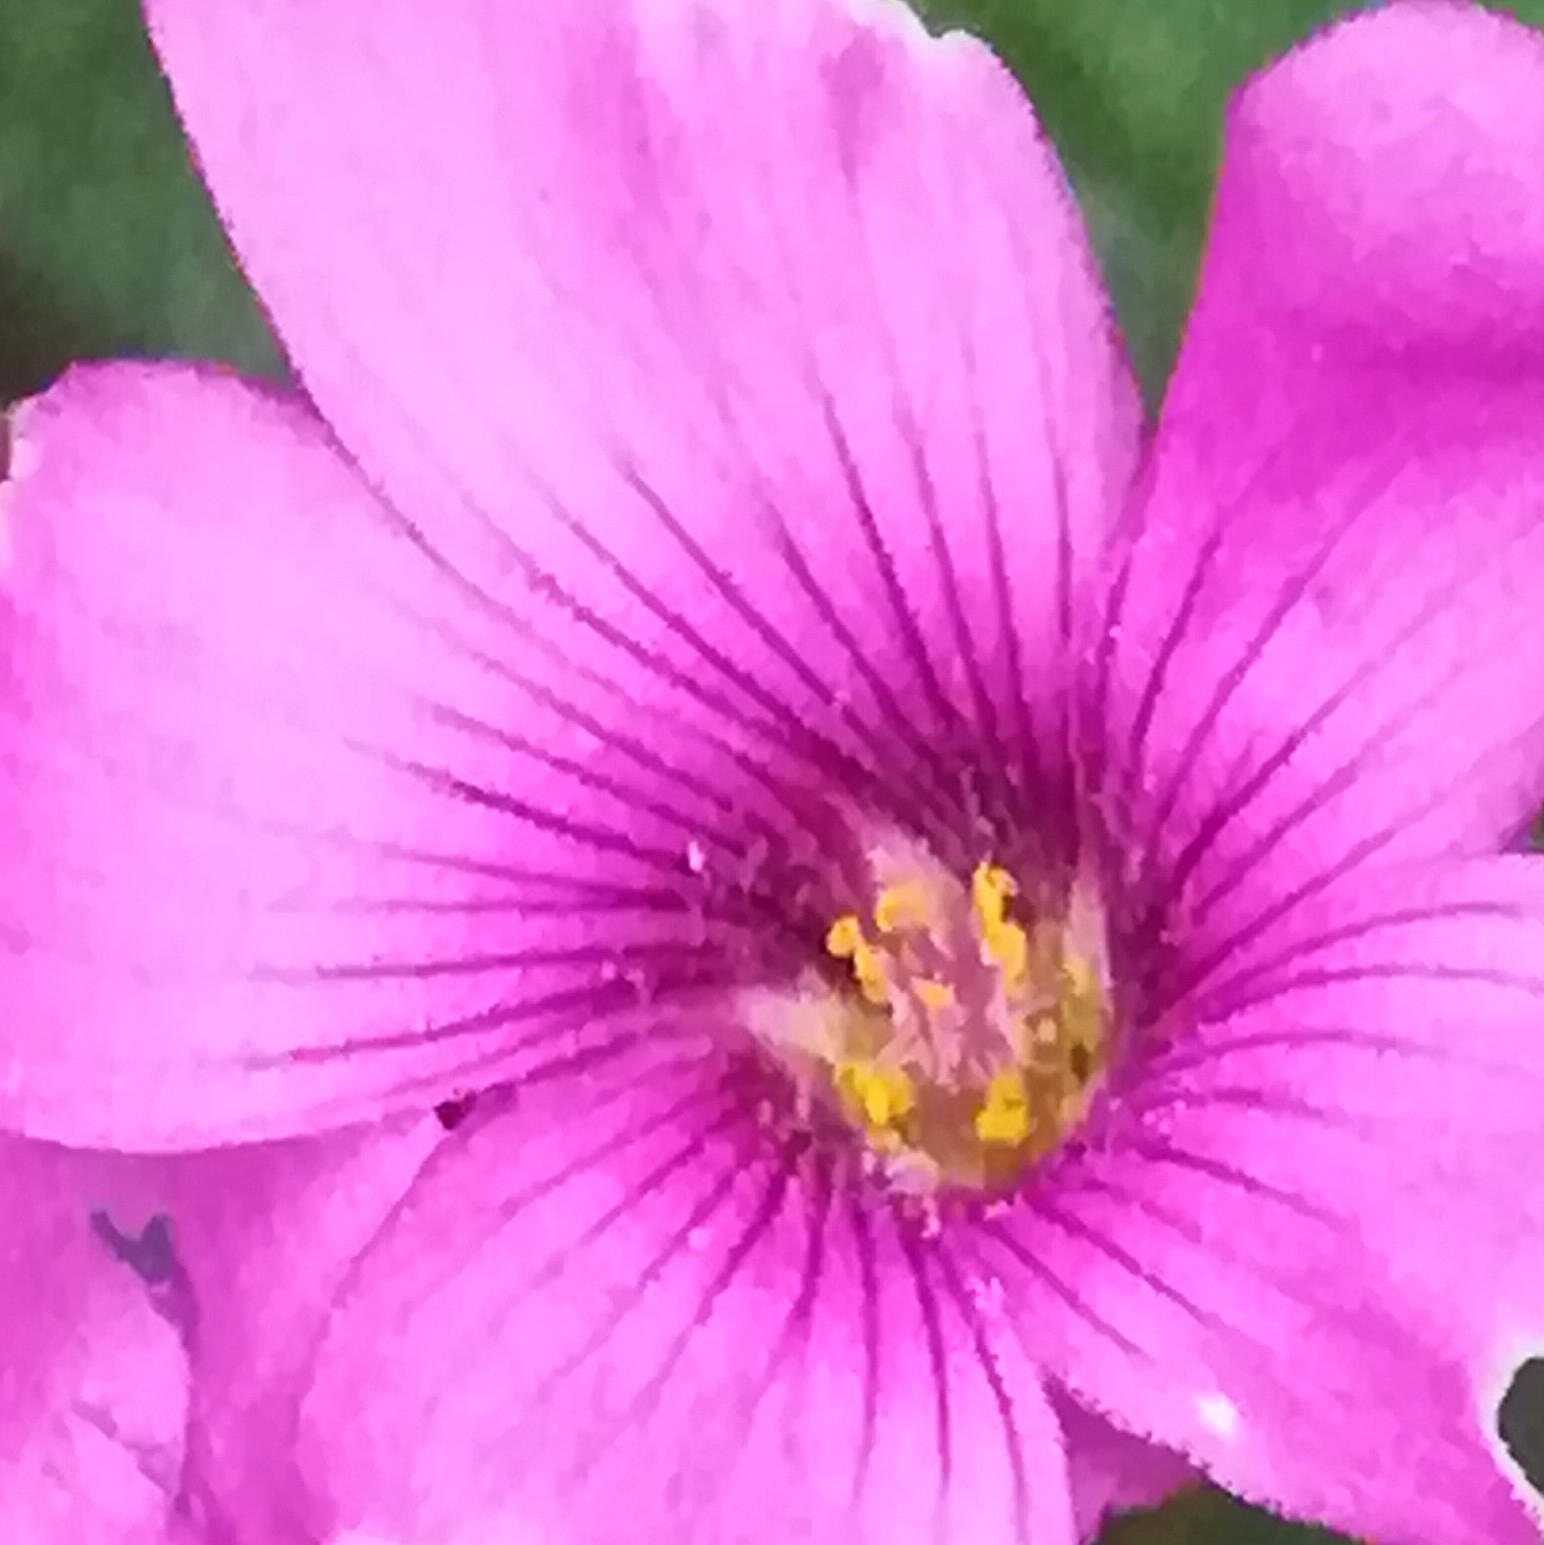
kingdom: Plantae
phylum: Tracheophyta
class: Magnoliopsida
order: Oxalidales
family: Oxalidaceae
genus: Oxalis
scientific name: Oxalis articulata
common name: Pink-sorrel
